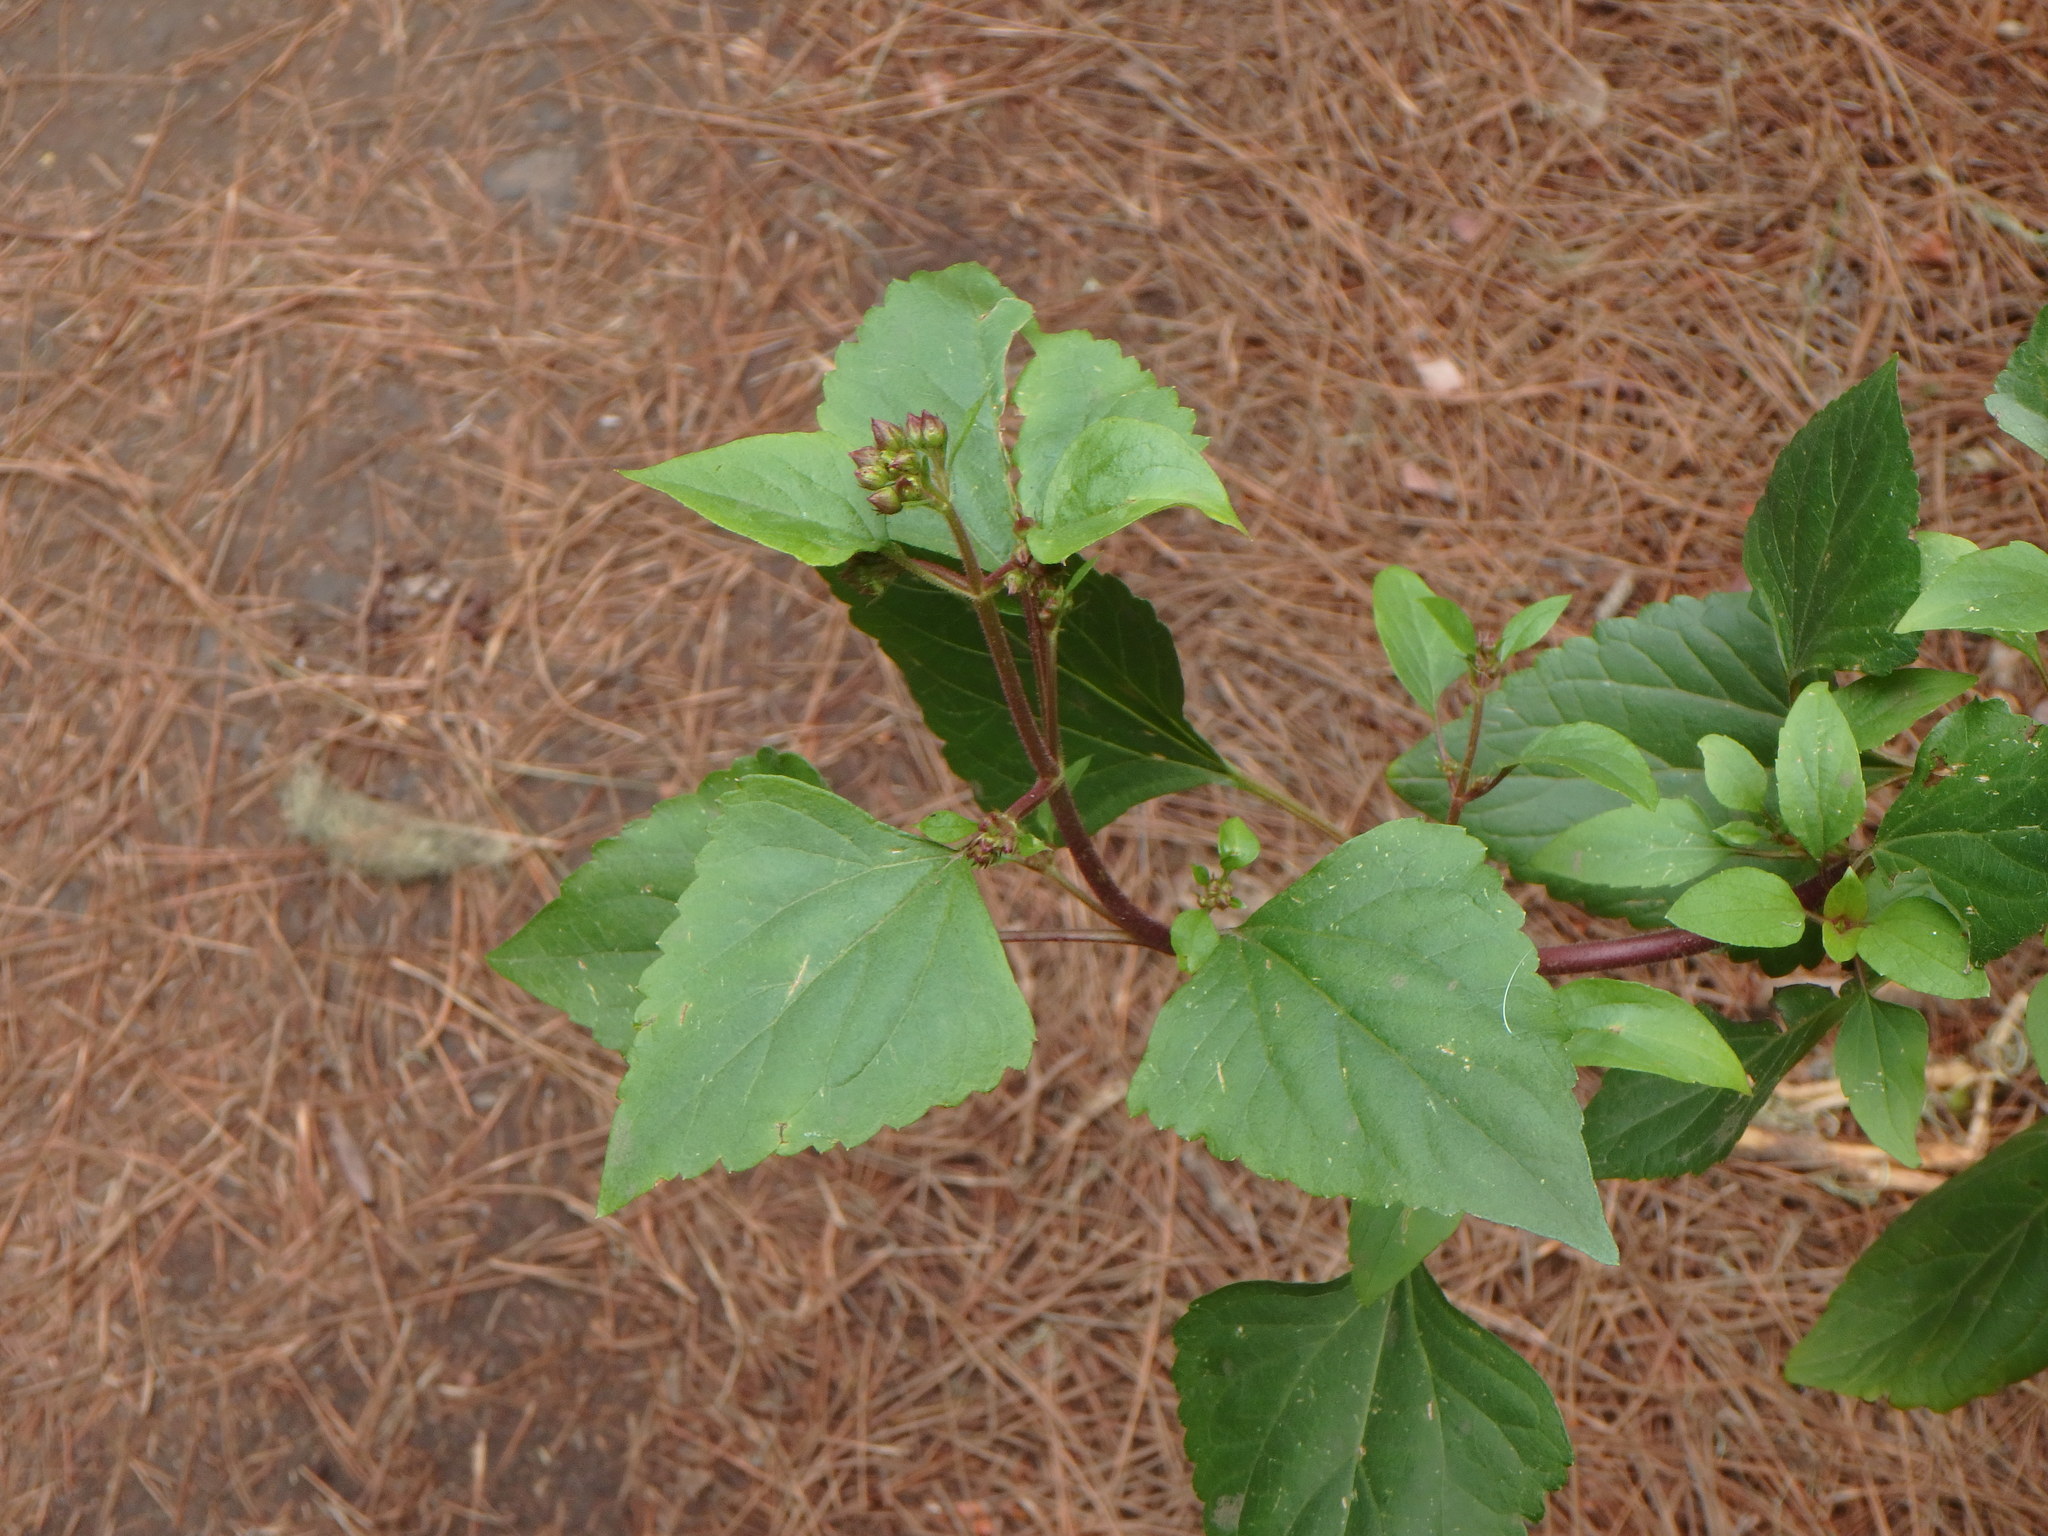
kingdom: Plantae
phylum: Tracheophyta
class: Magnoliopsida
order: Asterales
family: Asteraceae
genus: Ageratina
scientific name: Ageratina adenophora
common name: Sticky snakeroot
